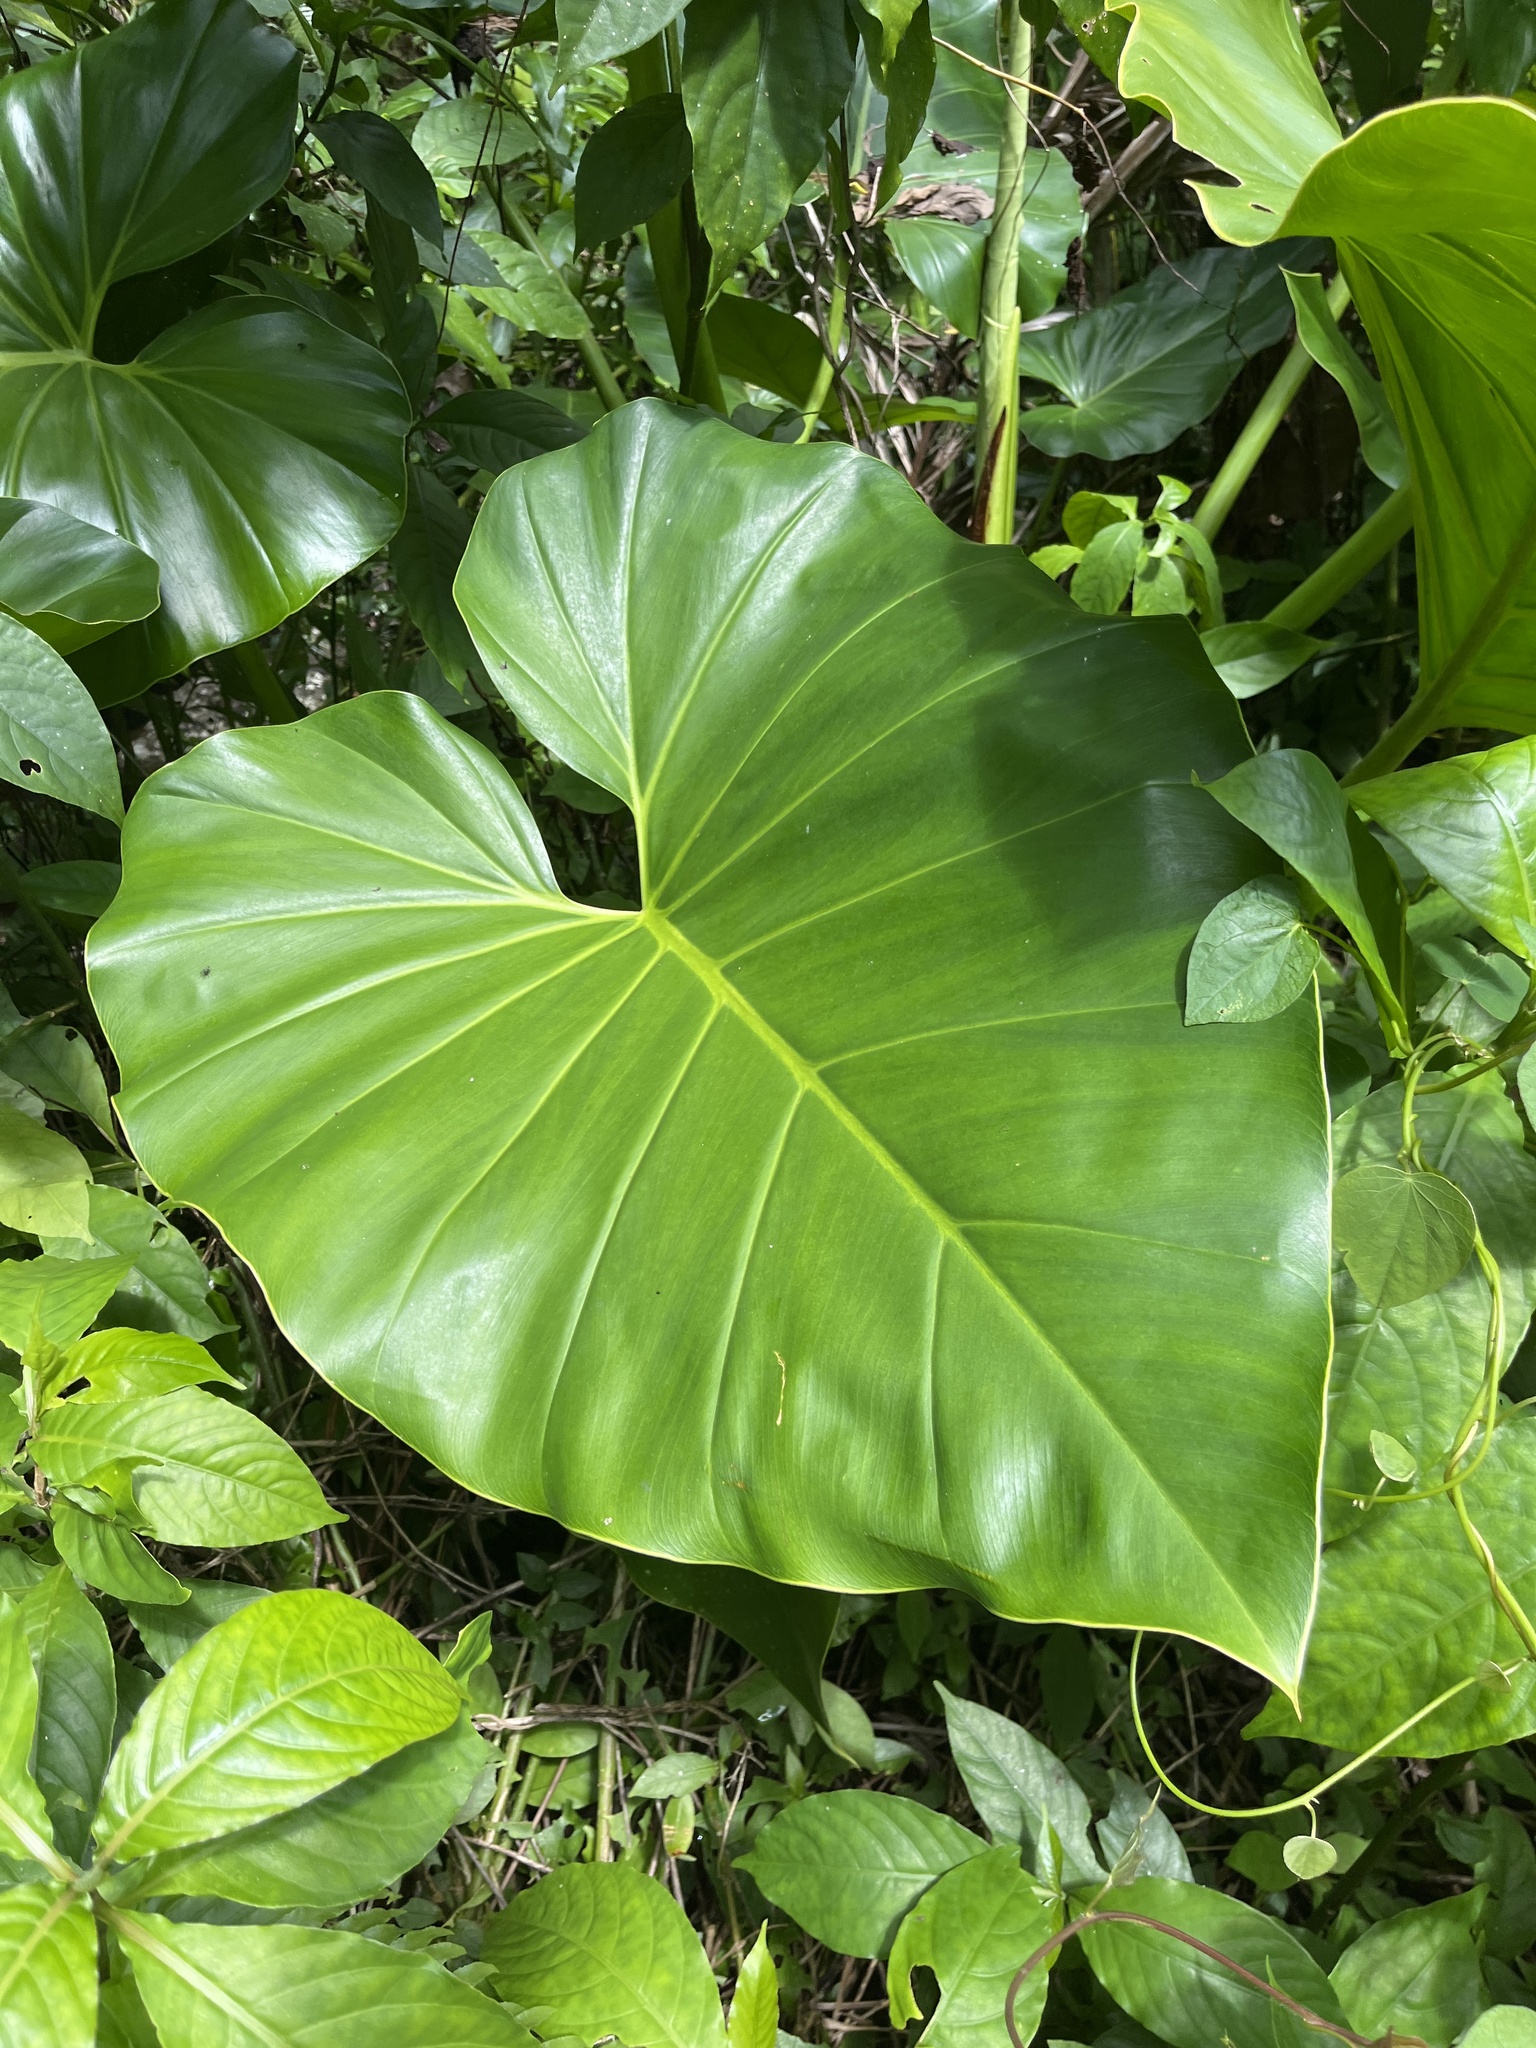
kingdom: Plantae
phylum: Tracheophyta
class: Liliopsida
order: Alismatales
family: Araceae
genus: Philodendron
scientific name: Philodendron giganteum
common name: Giant philodendron
